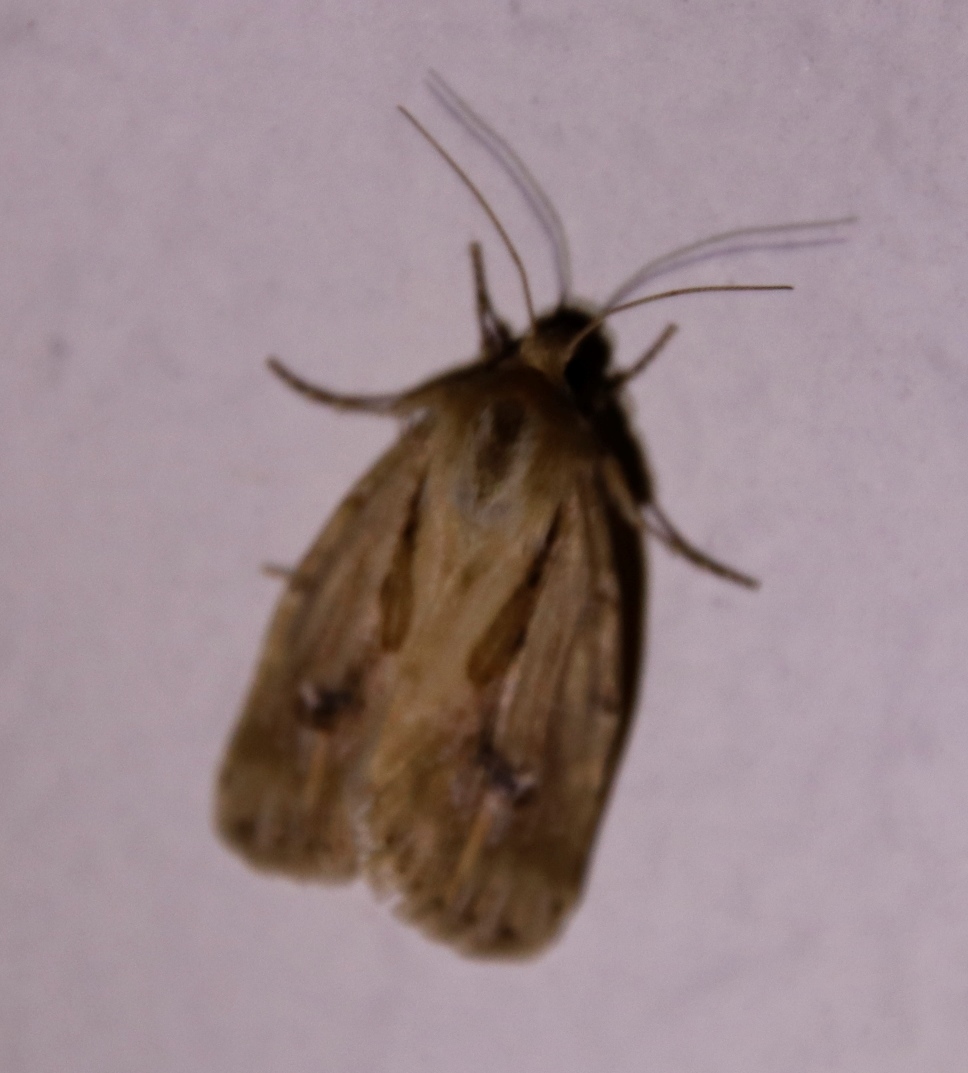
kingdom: Animalia
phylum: Arthropoda
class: Insecta
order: Lepidoptera
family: Noctuidae
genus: Heliocheilus
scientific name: Heliocheilus stigmatia
